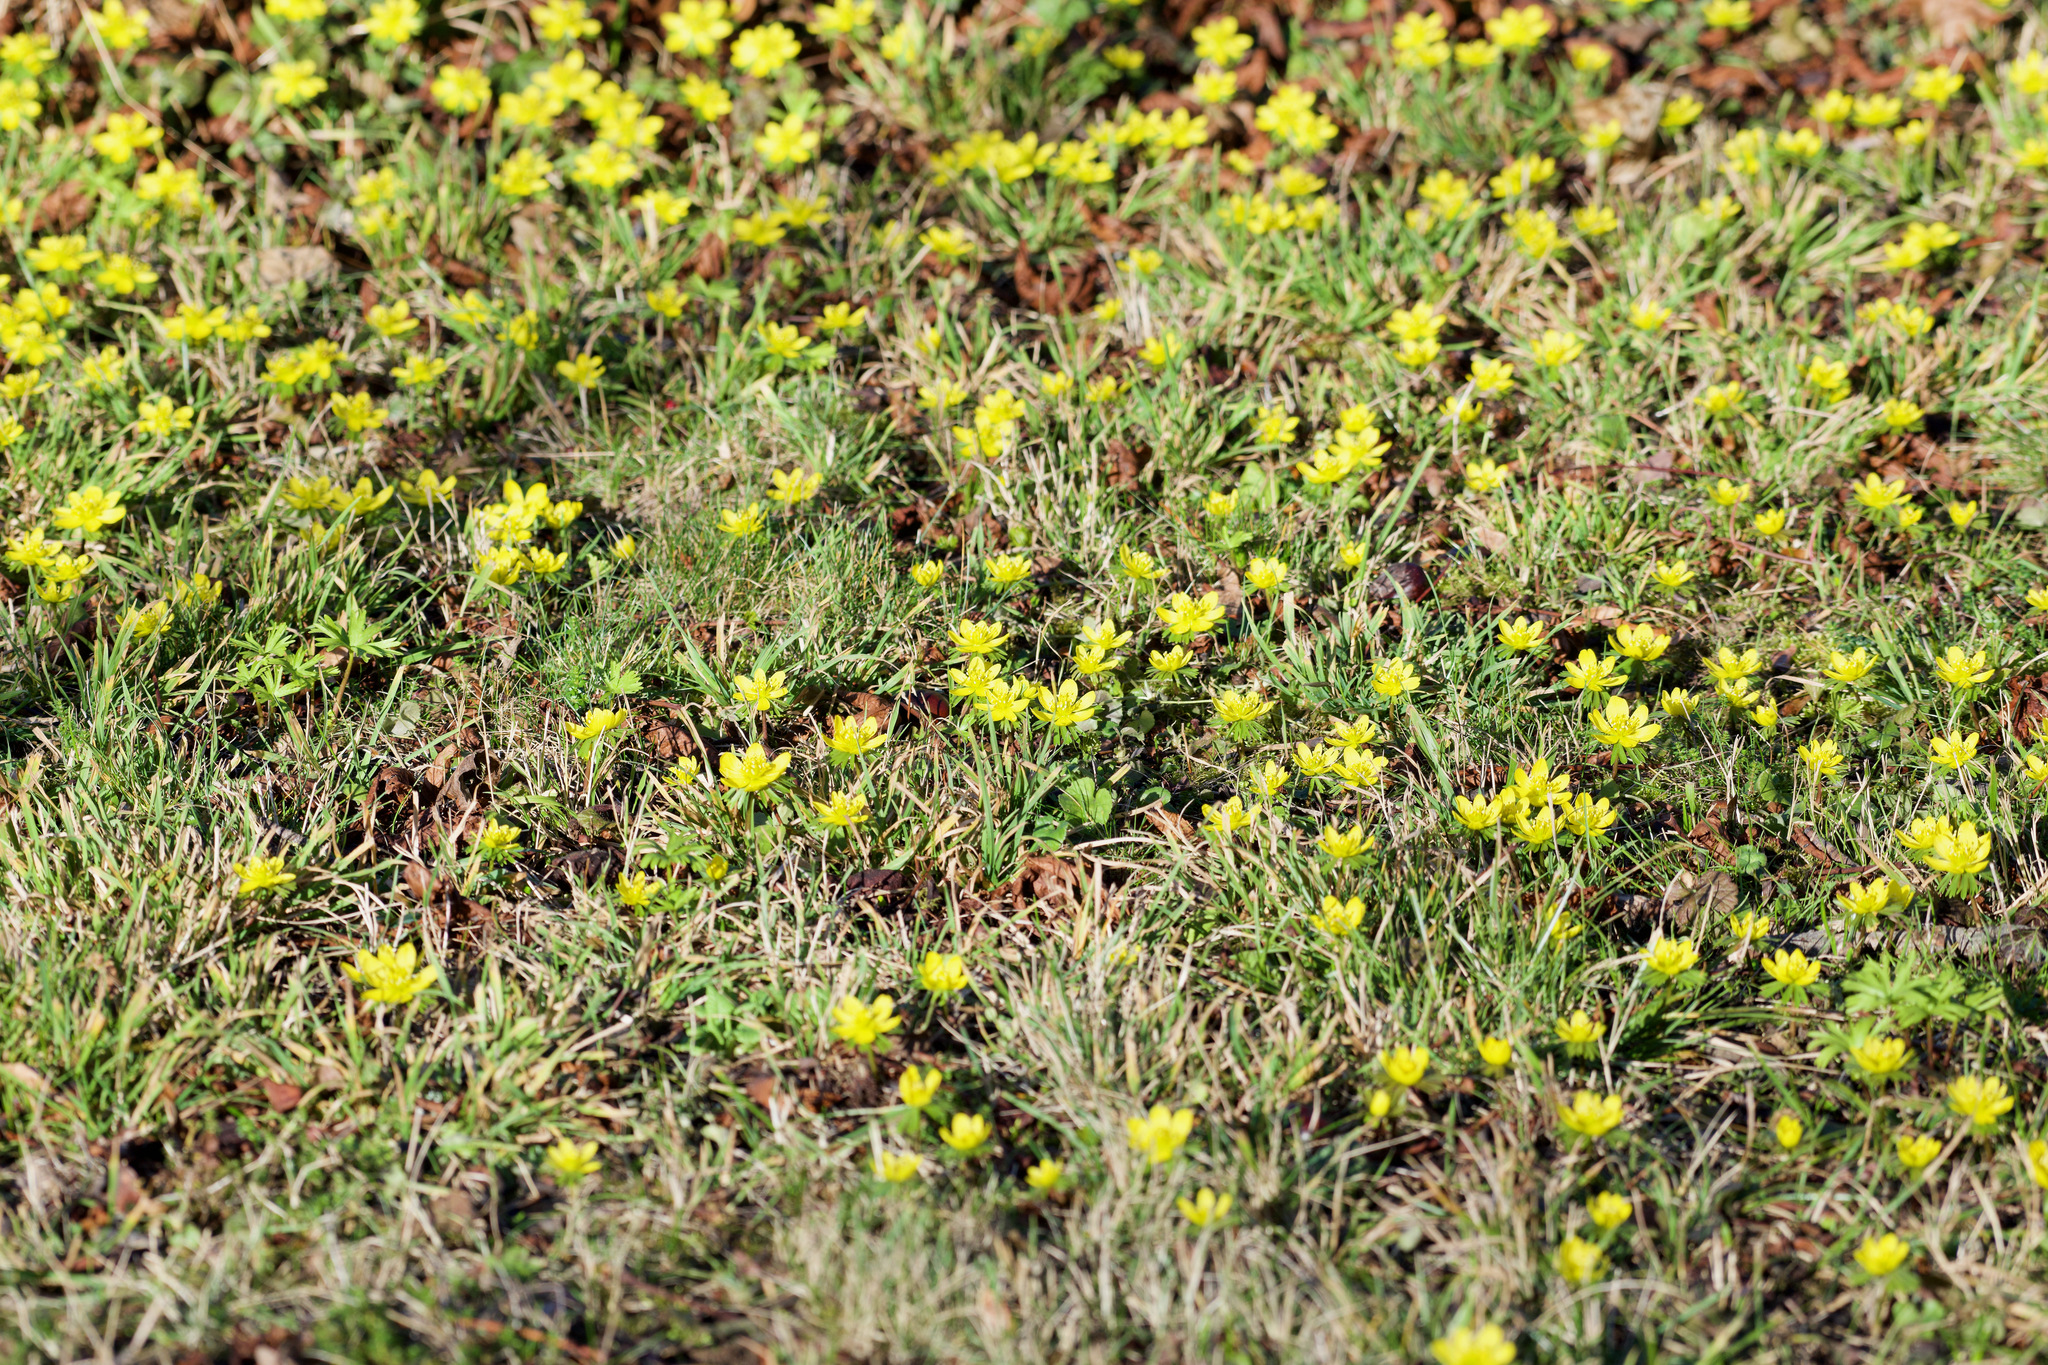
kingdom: Plantae
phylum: Tracheophyta
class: Magnoliopsida
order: Ranunculales
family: Ranunculaceae
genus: Eranthis
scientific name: Eranthis hyemalis
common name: Winter aconite
